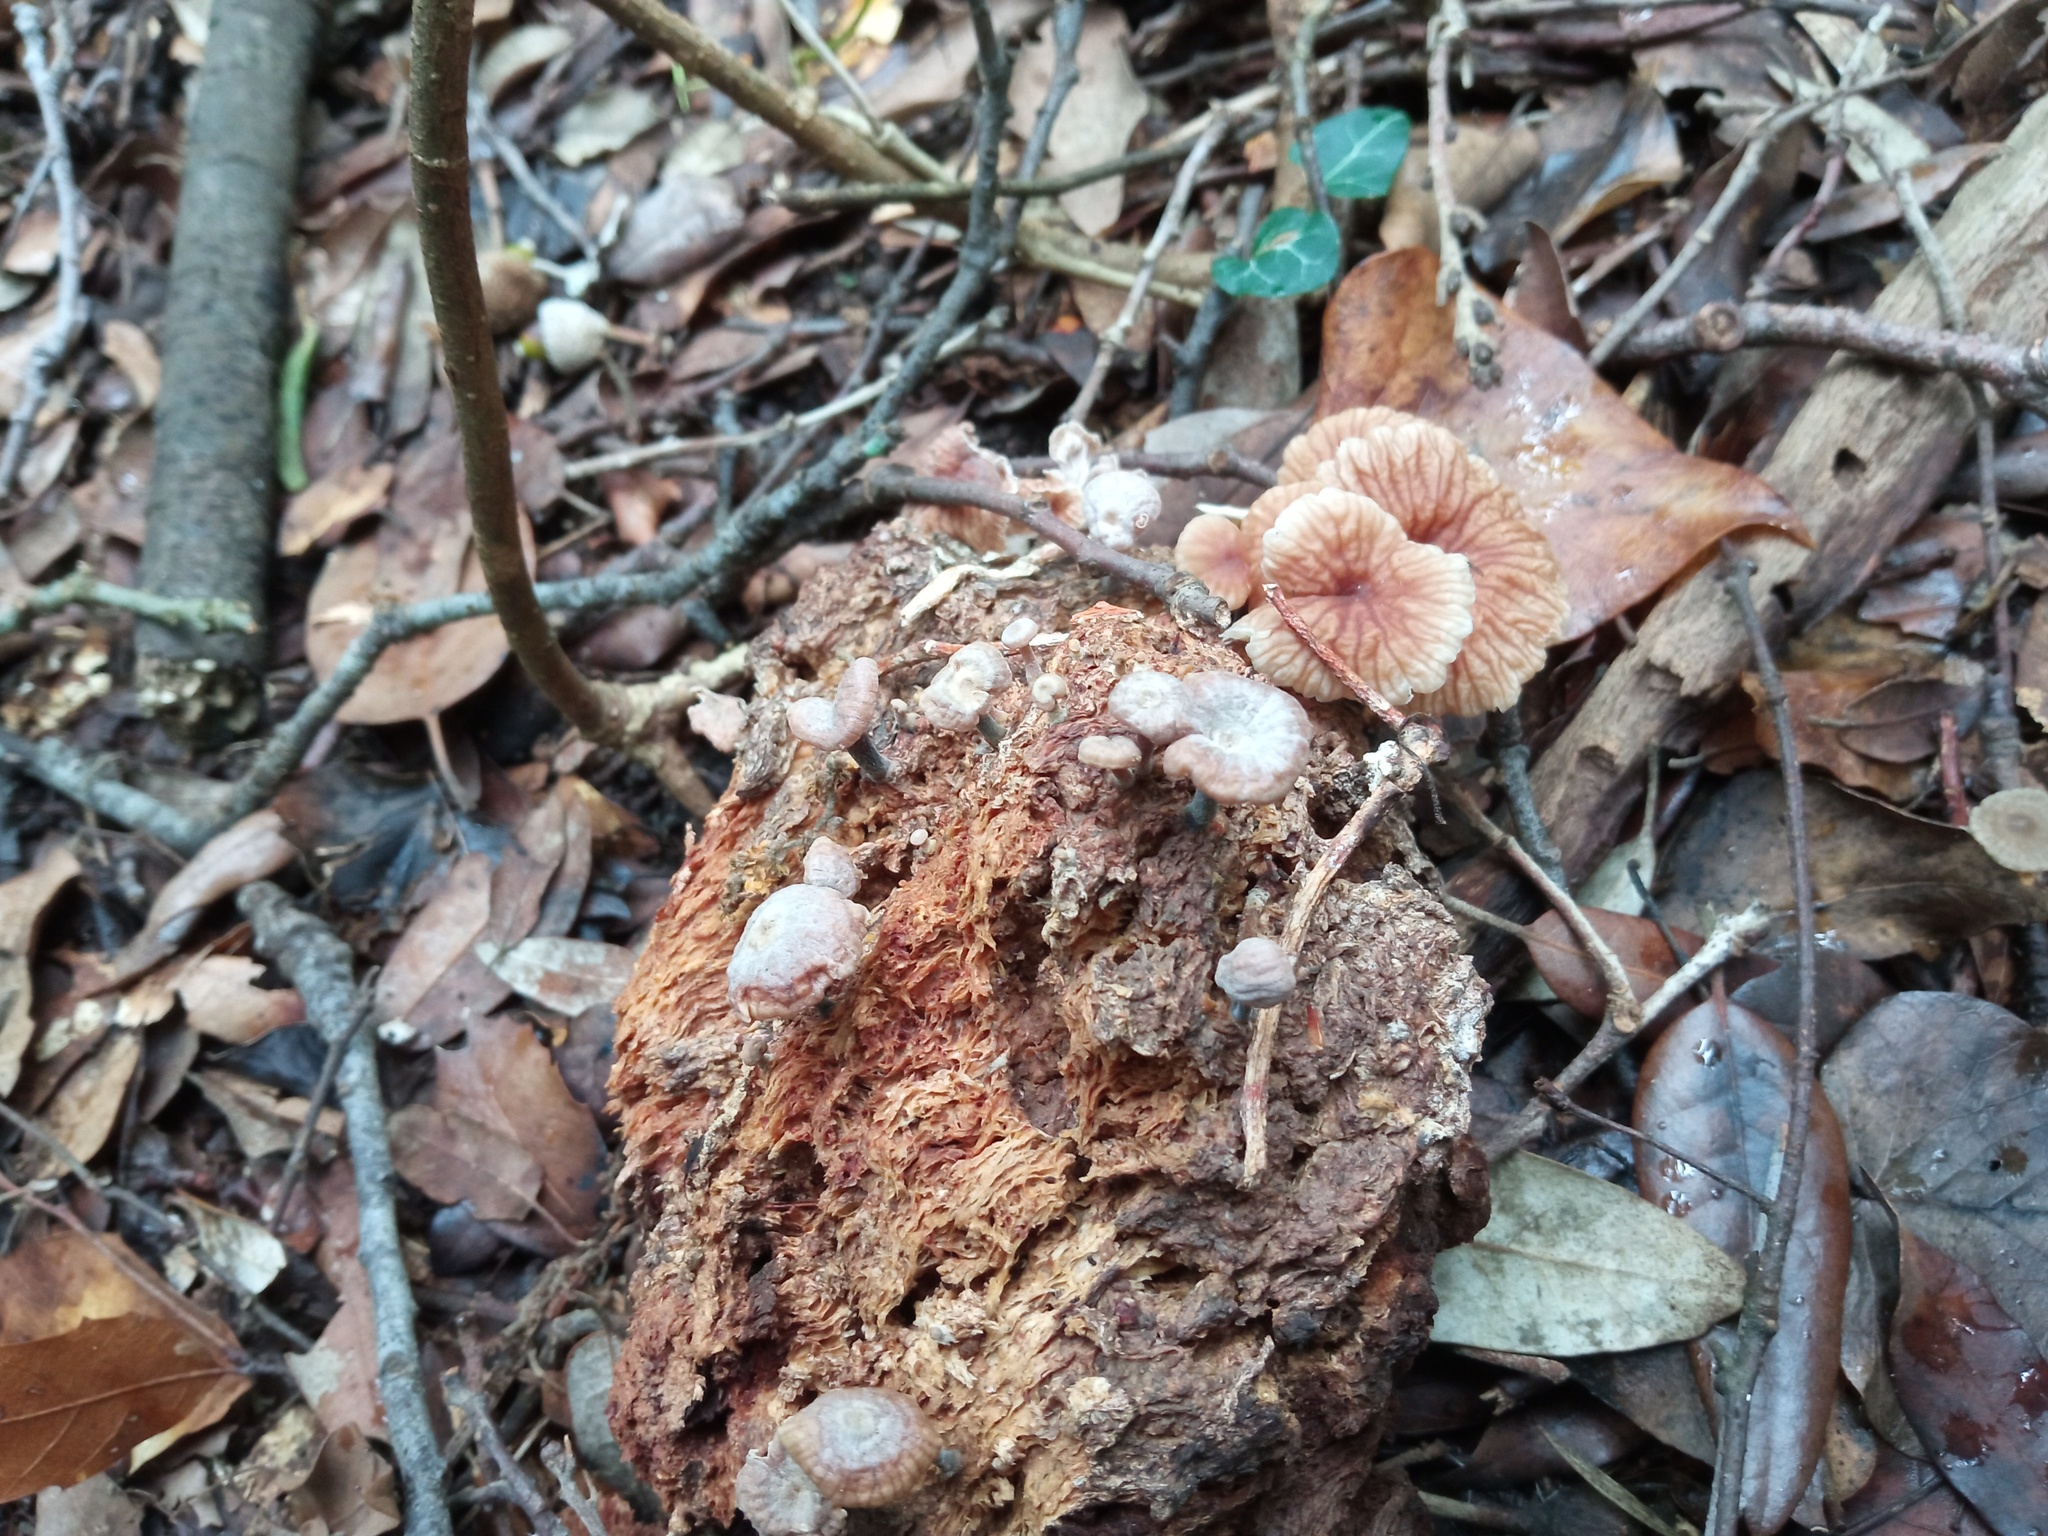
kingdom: Fungi
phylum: Basidiomycota
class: Agaricomycetes
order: Agaricales
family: Omphalotaceae
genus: Gymnopus
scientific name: Gymnopus foetidus
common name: Foetid parachute
